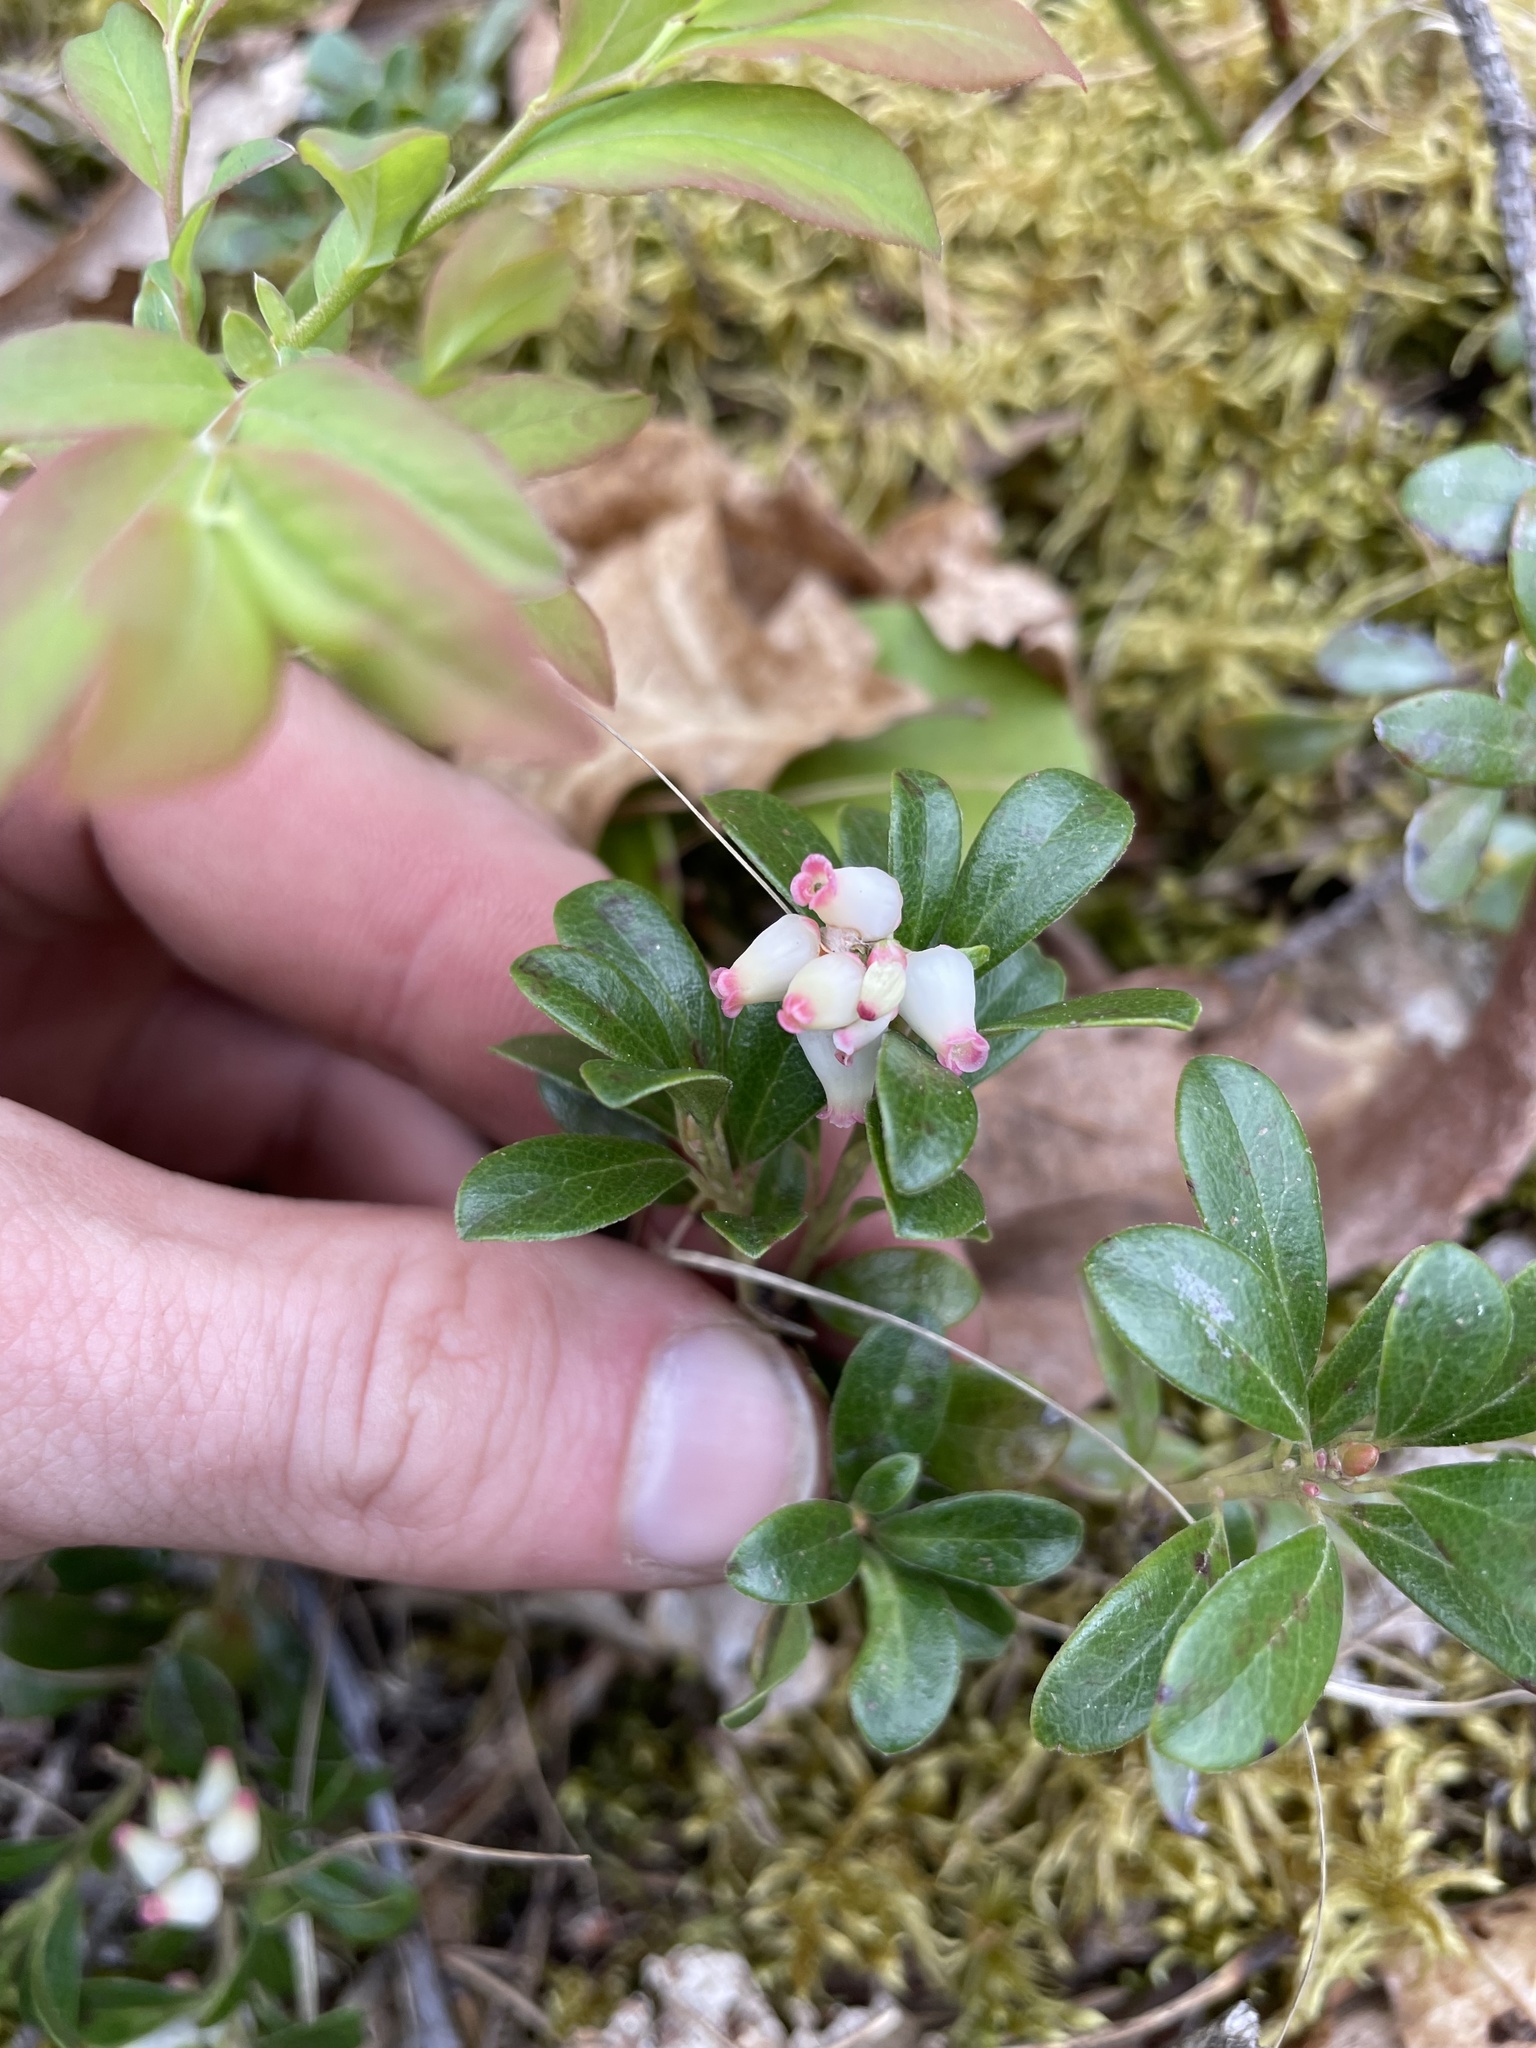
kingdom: Plantae
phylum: Tracheophyta
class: Magnoliopsida
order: Ericales
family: Ericaceae
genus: Arctostaphylos
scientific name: Arctostaphylos uva-ursi
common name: Bearberry
